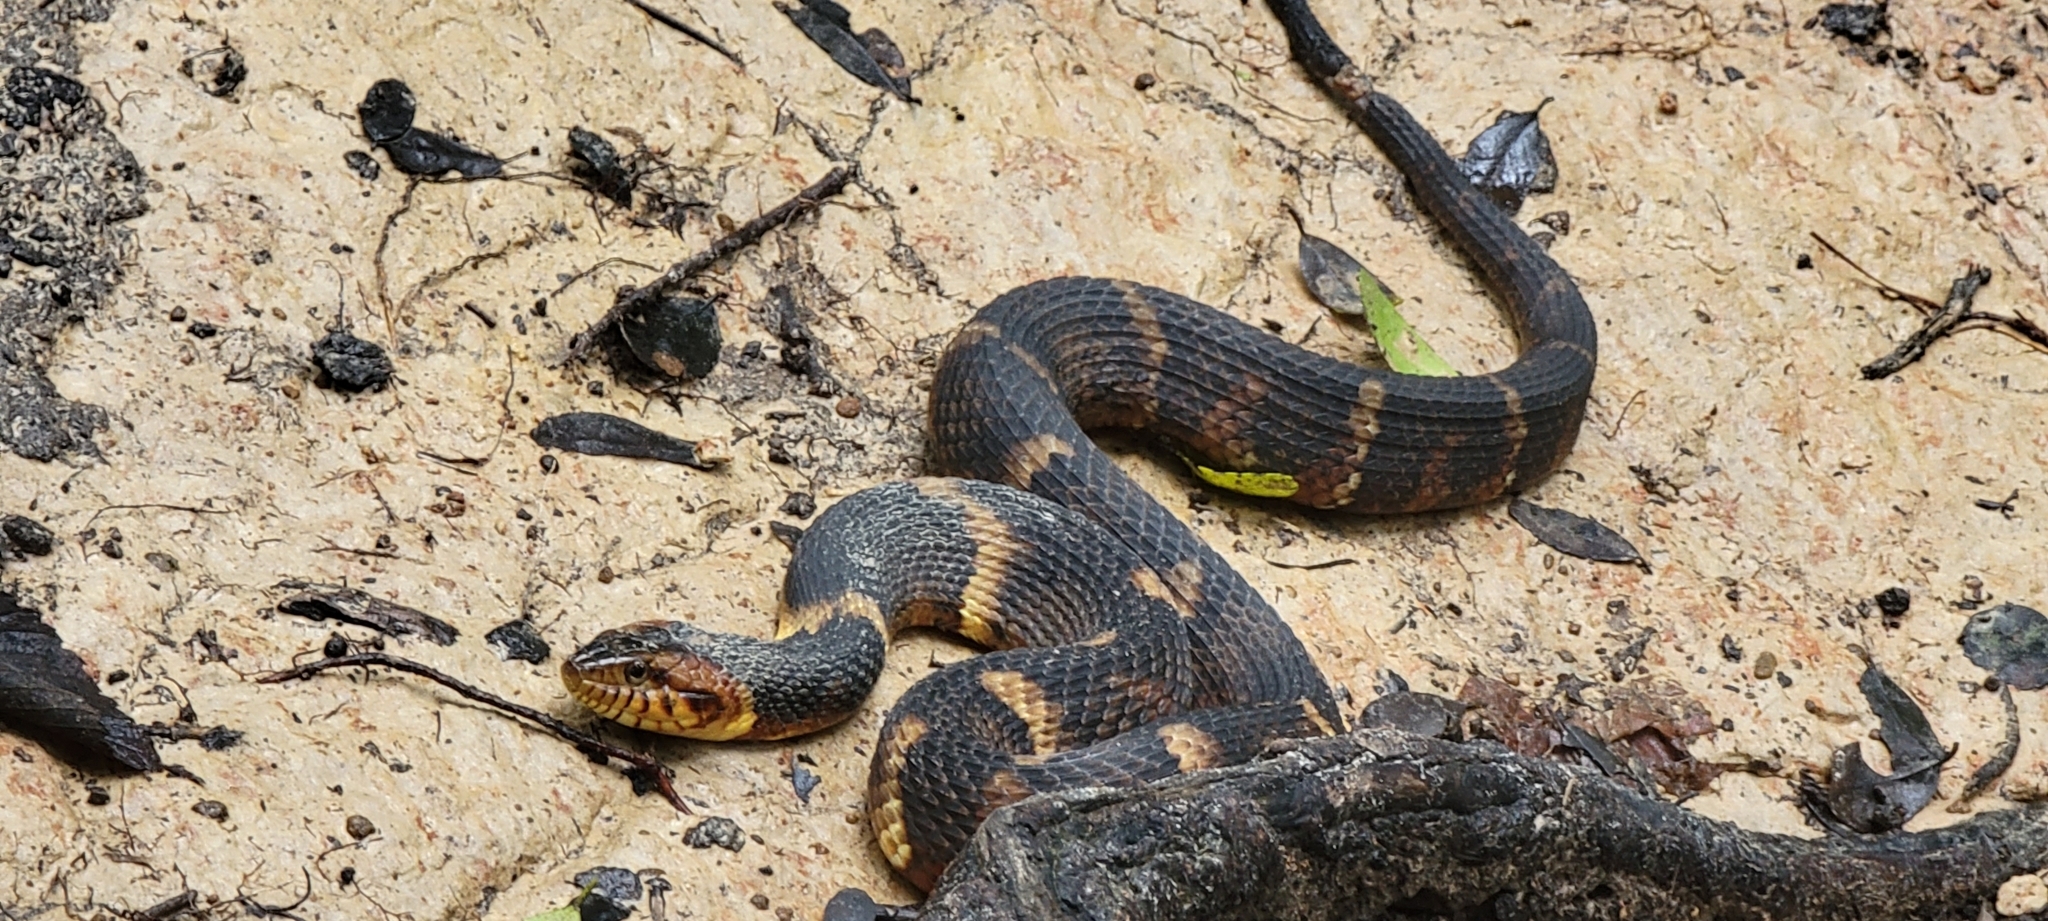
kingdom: Animalia
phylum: Chordata
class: Squamata
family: Colubridae
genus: Nerodia
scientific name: Nerodia fasciata
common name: Southern water snake
